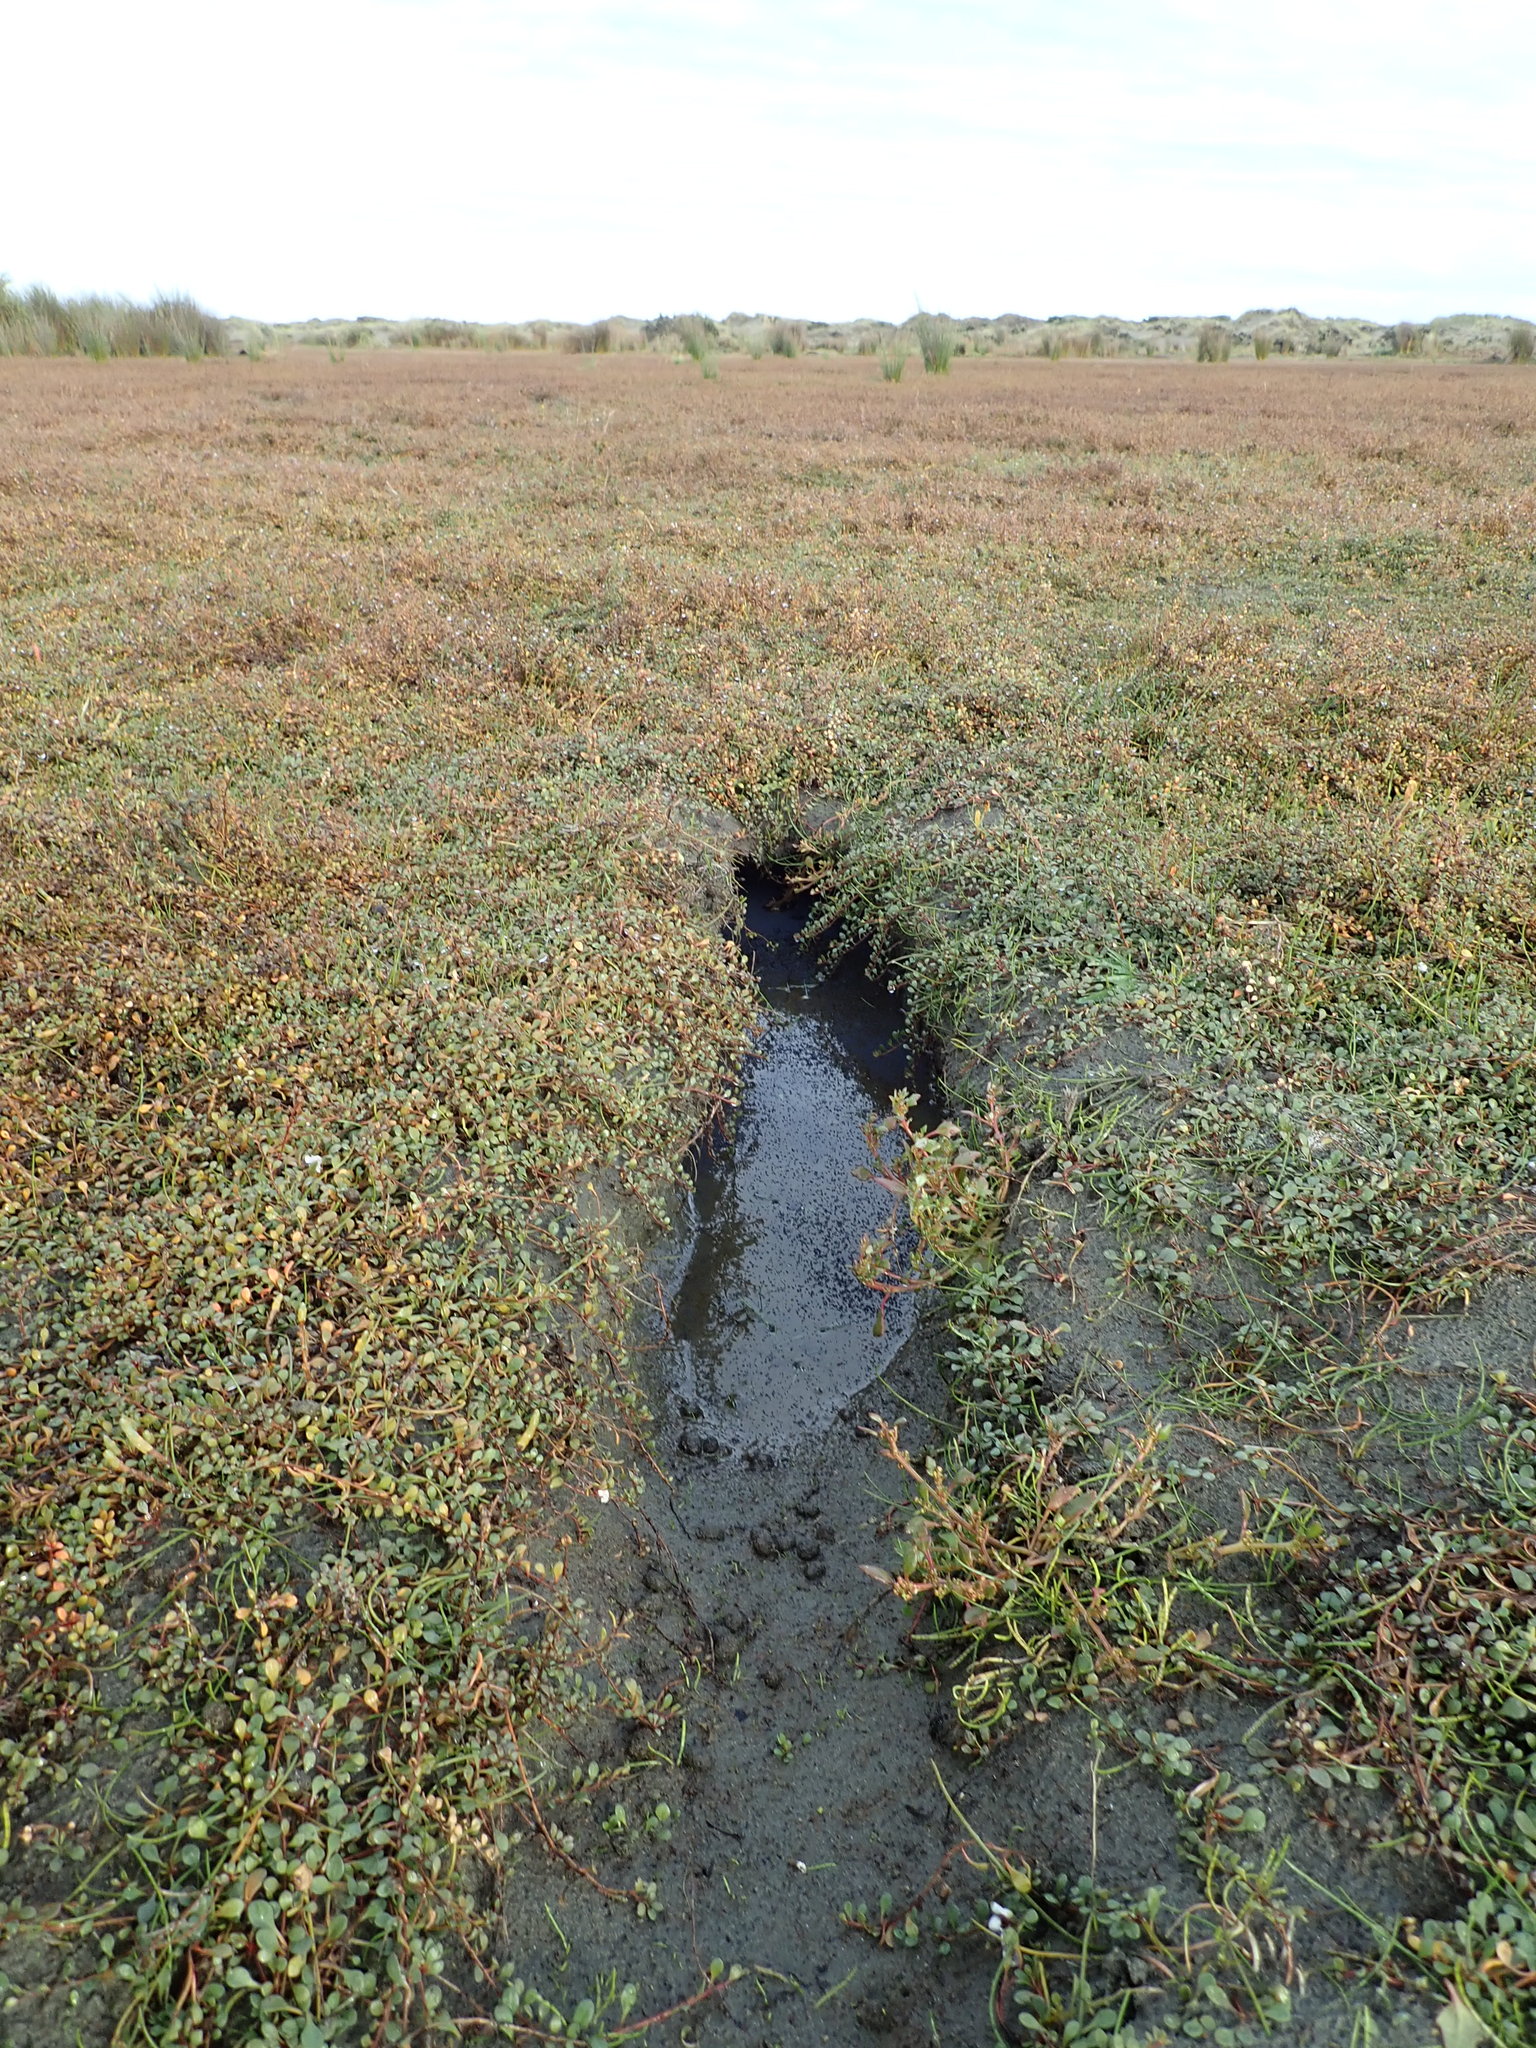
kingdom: Plantae
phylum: Tracheophyta
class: Magnoliopsida
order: Caryophyllales
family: Amaranthaceae
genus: Oxybasis
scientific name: Oxybasis ambigua
